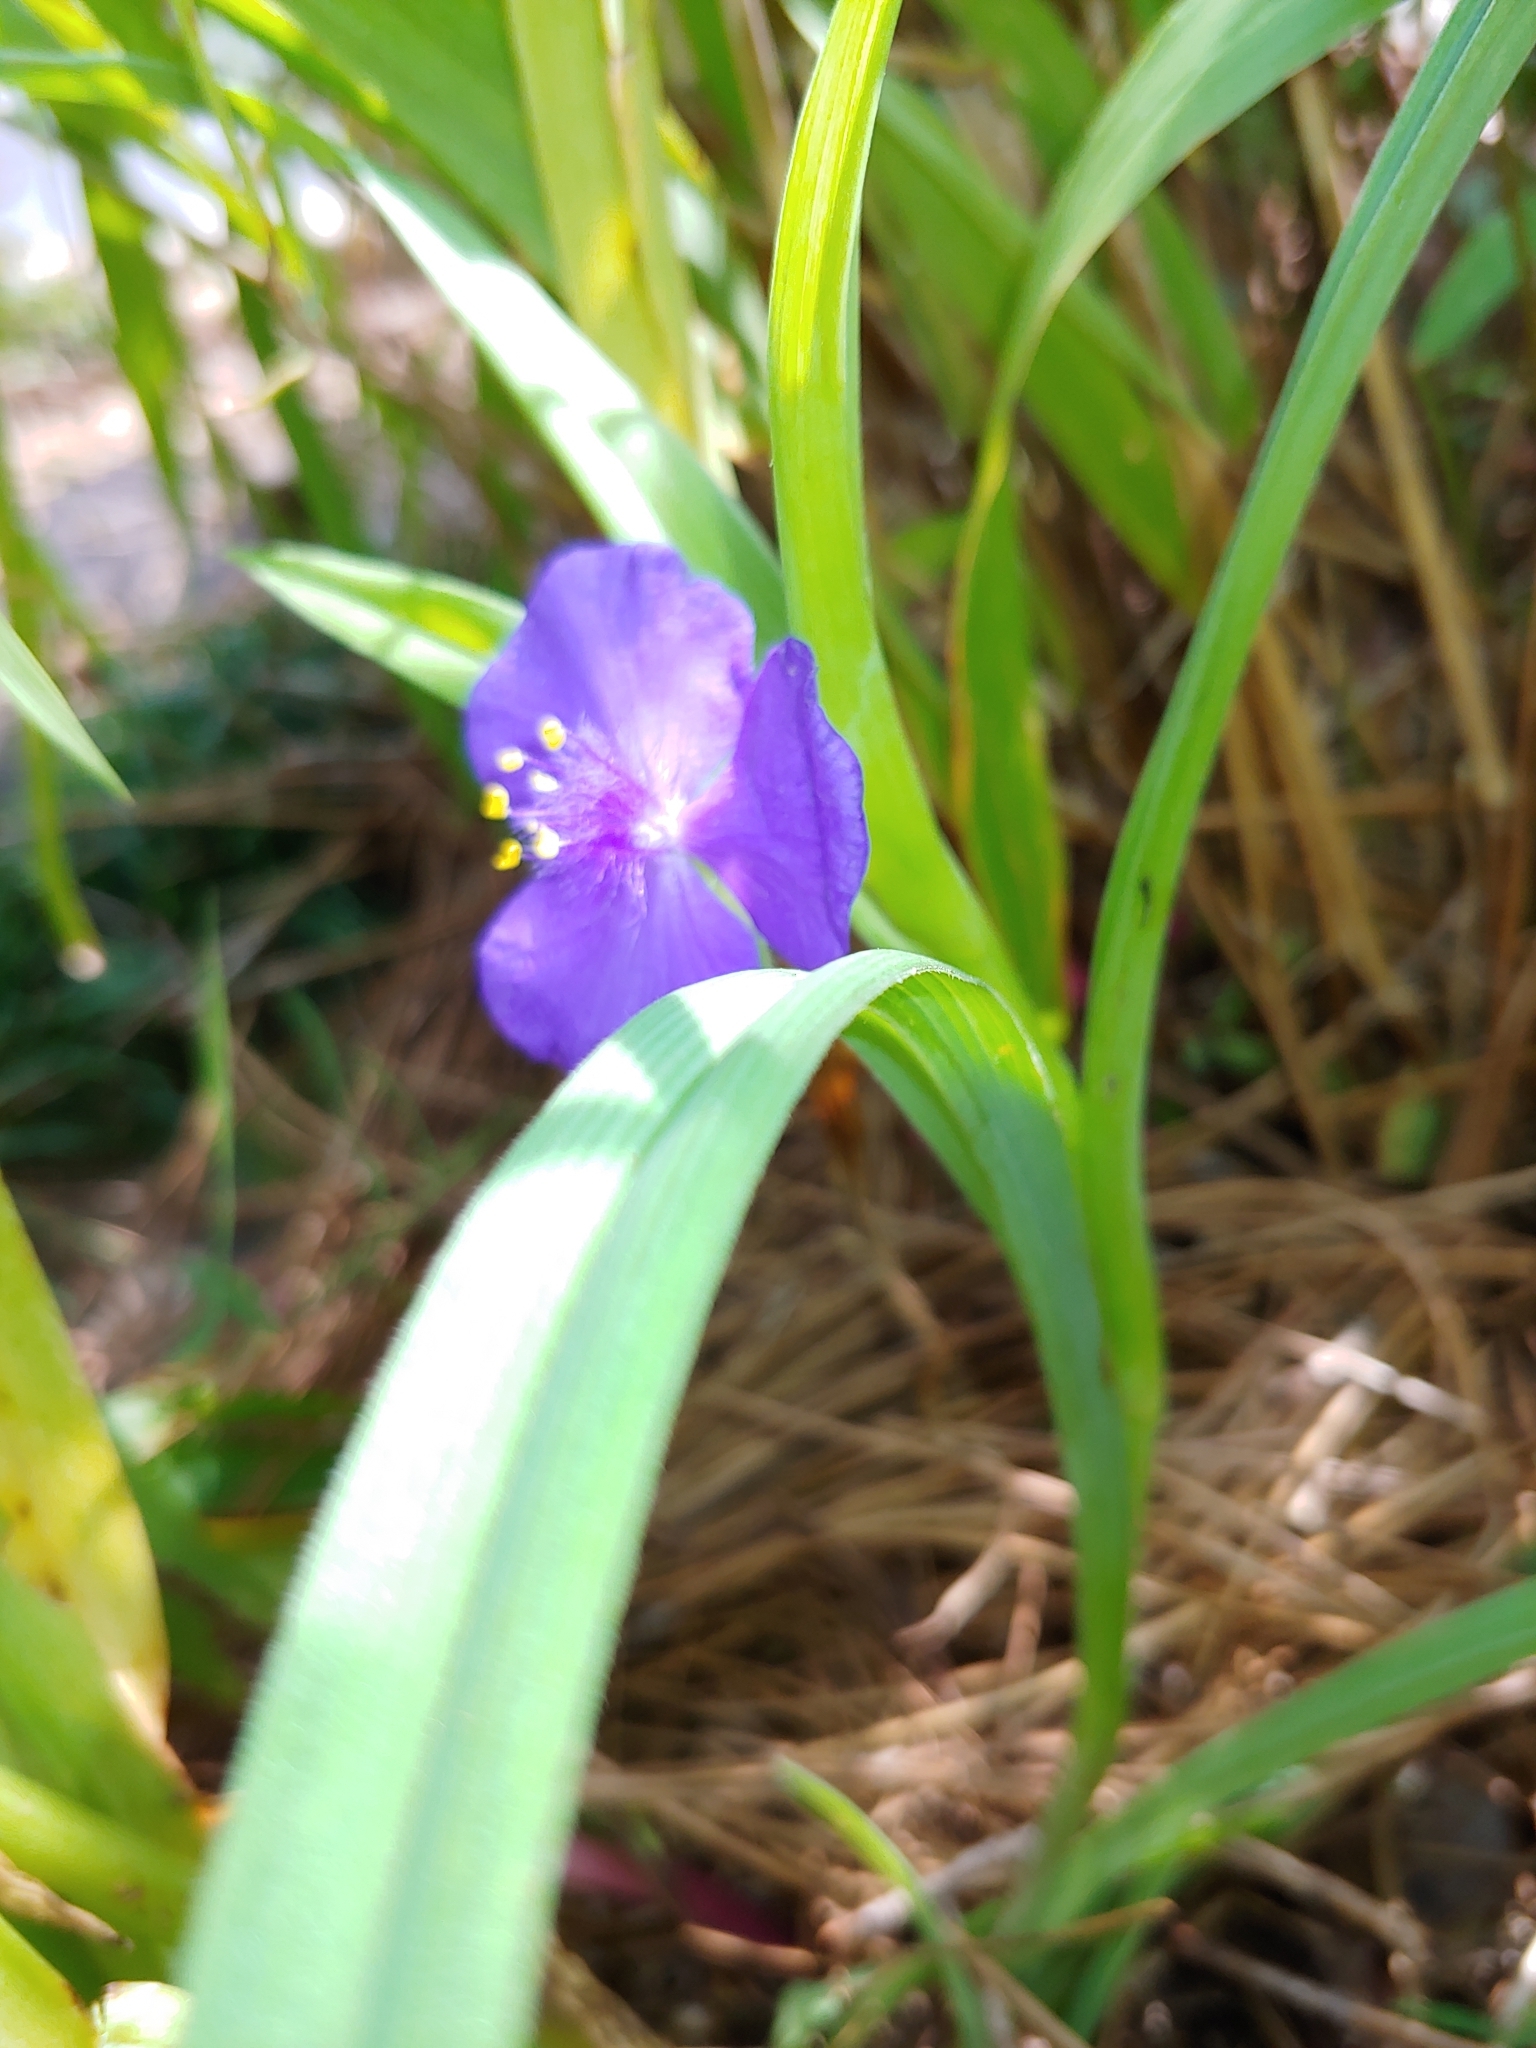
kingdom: Plantae
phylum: Tracheophyta
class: Liliopsida
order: Commelinales
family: Commelinaceae
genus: Tradescantia
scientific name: Tradescantia virginiana
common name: Spiderwort
